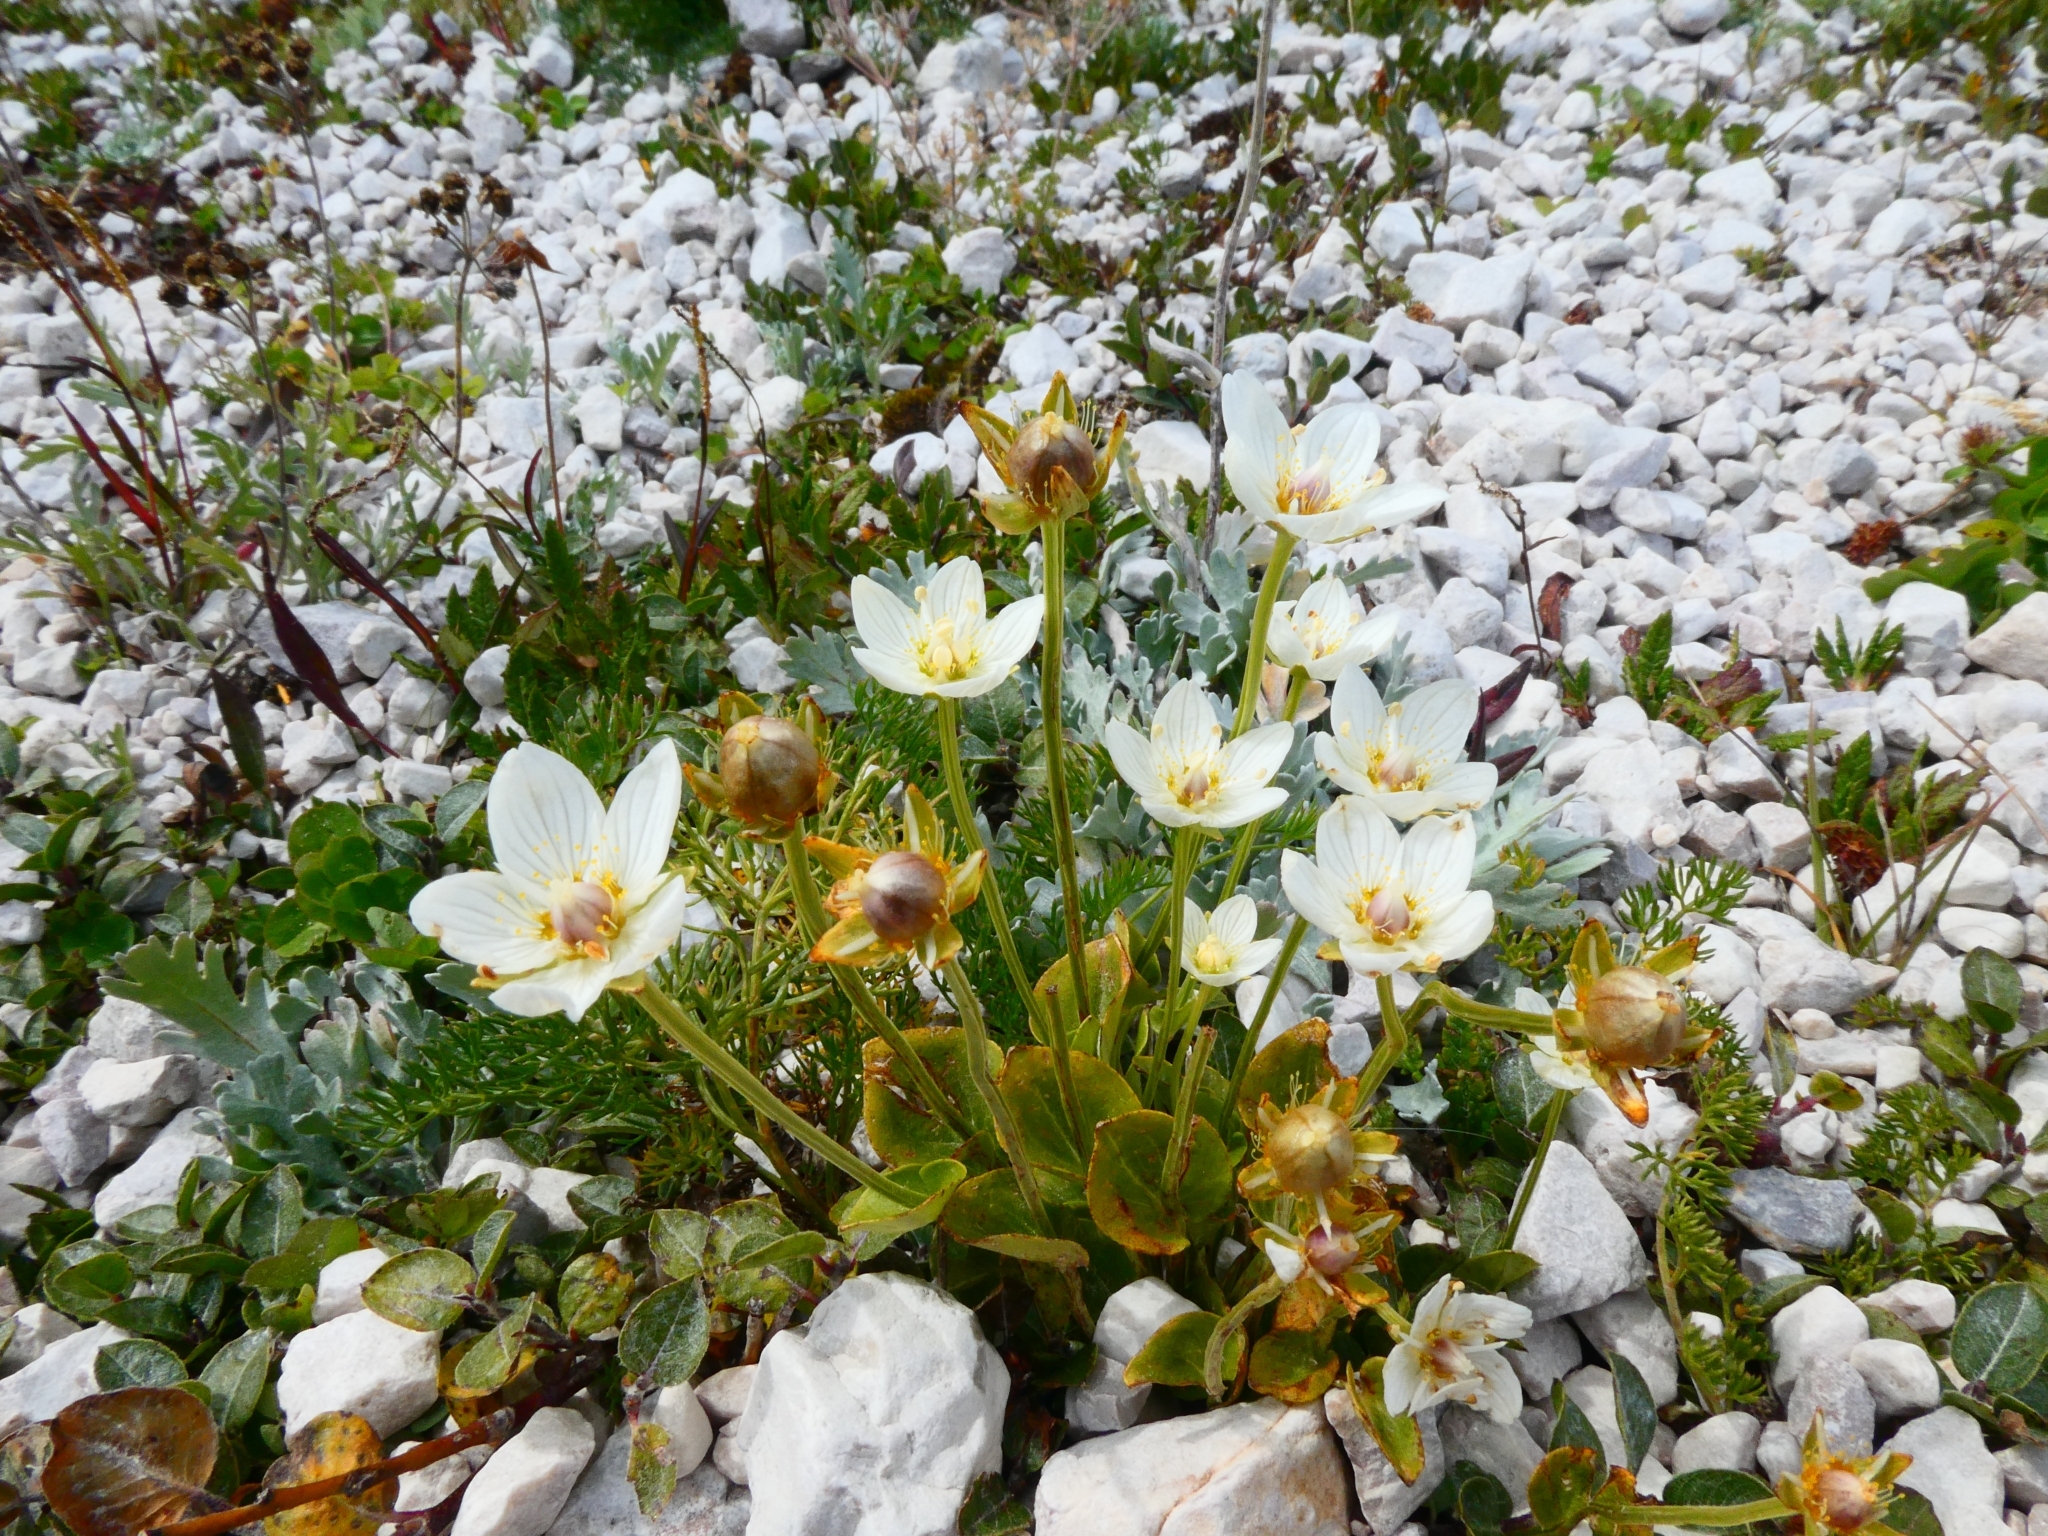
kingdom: Plantae
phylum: Tracheophyta
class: Magnoliopsida
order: Celastrales
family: Parnassiaceae
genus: Parnassia
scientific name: Parnassia palustris
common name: Grass-of-parnassus
